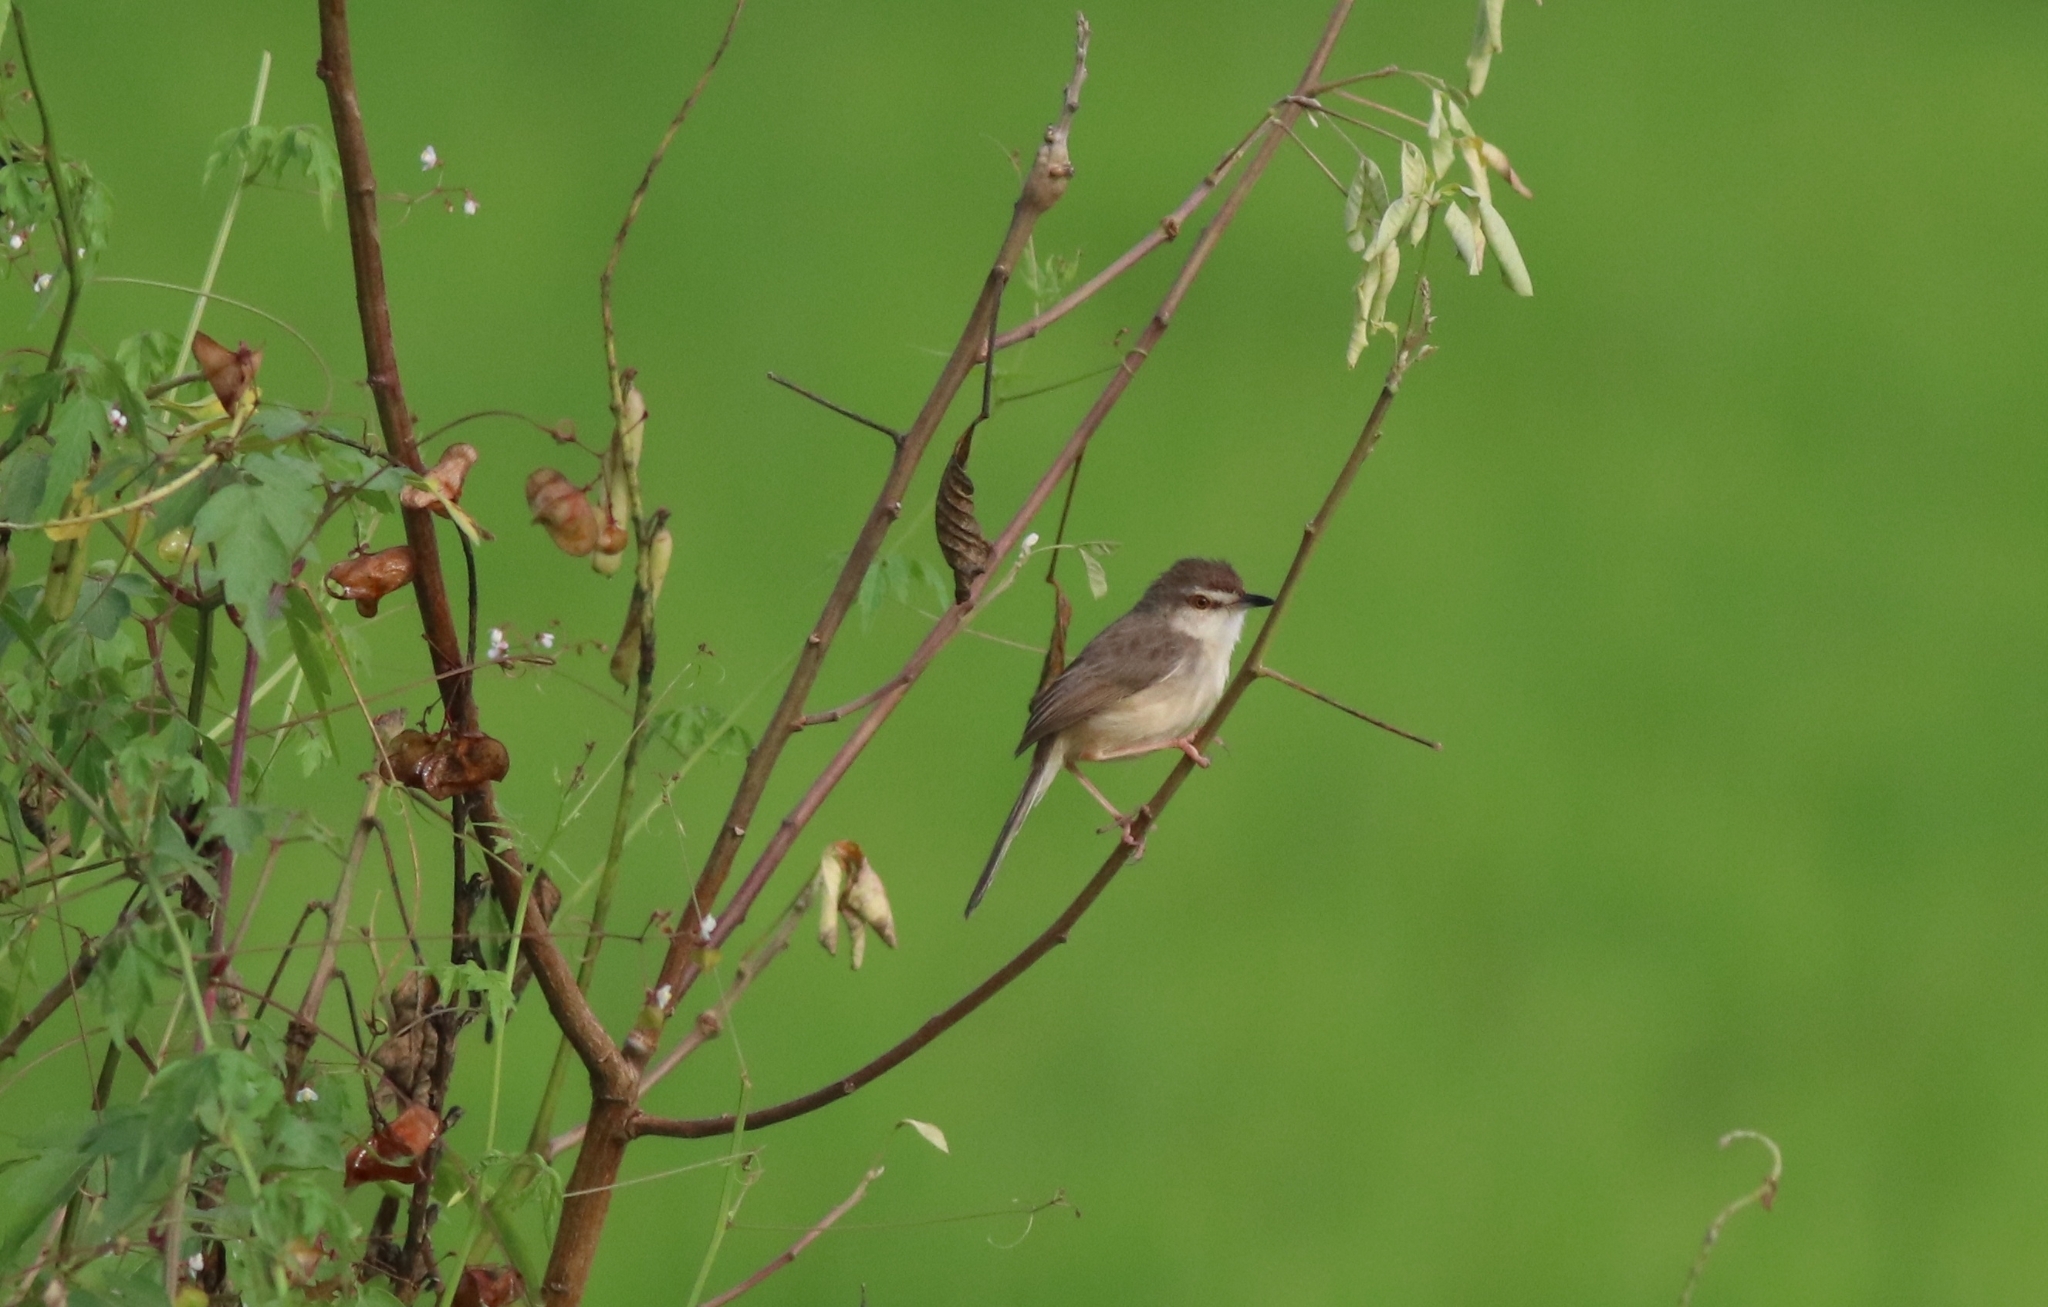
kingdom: Animalia
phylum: Chordata
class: Aves
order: Passeriformes
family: Cisticolidae
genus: Prinia
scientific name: Prinia inornata
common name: Plain prinia
